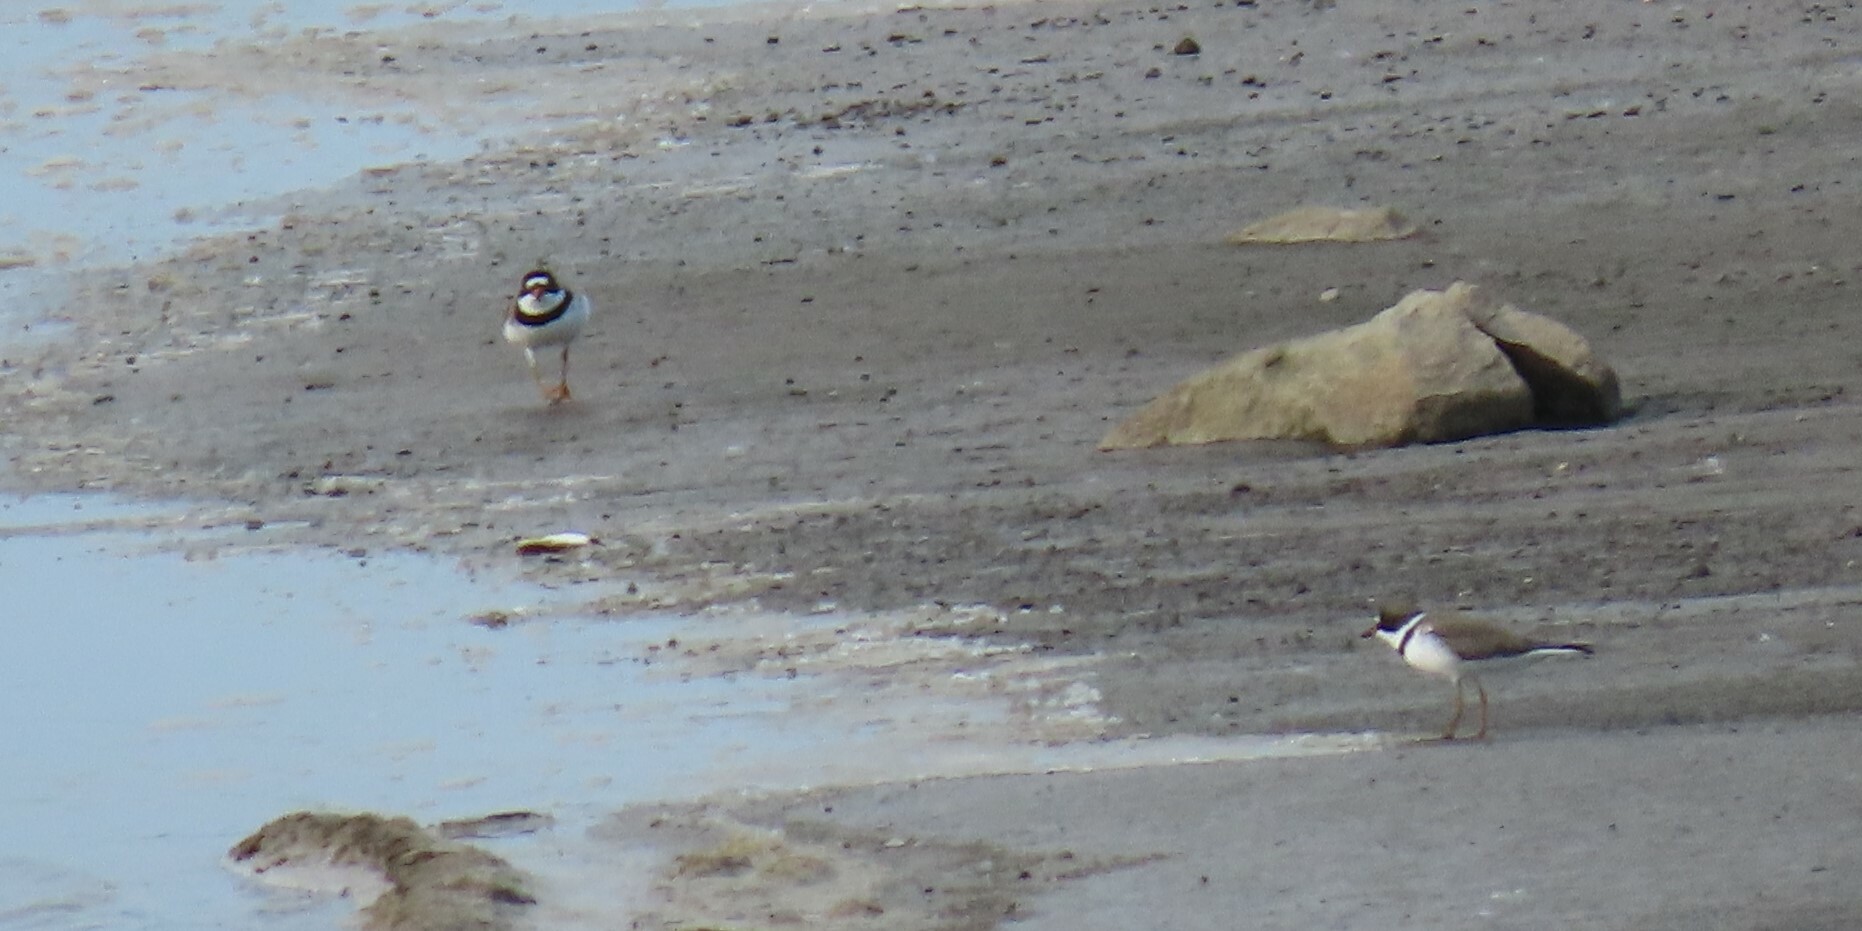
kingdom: Animalia
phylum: Chordata
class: Aves
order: Charadriiformes
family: Charadriidae
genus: Charadrius
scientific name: Charadrius semipalmatus
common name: Semipalmated plover
